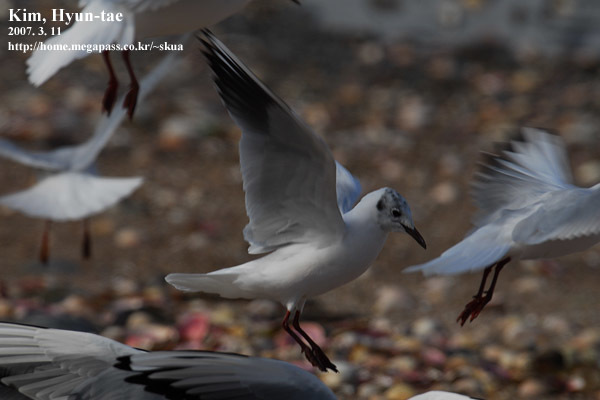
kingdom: Animalia
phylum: Chordata
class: Aves
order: Charadriiformes
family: Laridae
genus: Chroicocephalus
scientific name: Chroicocephalus ridibundus
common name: Black-headed gull
